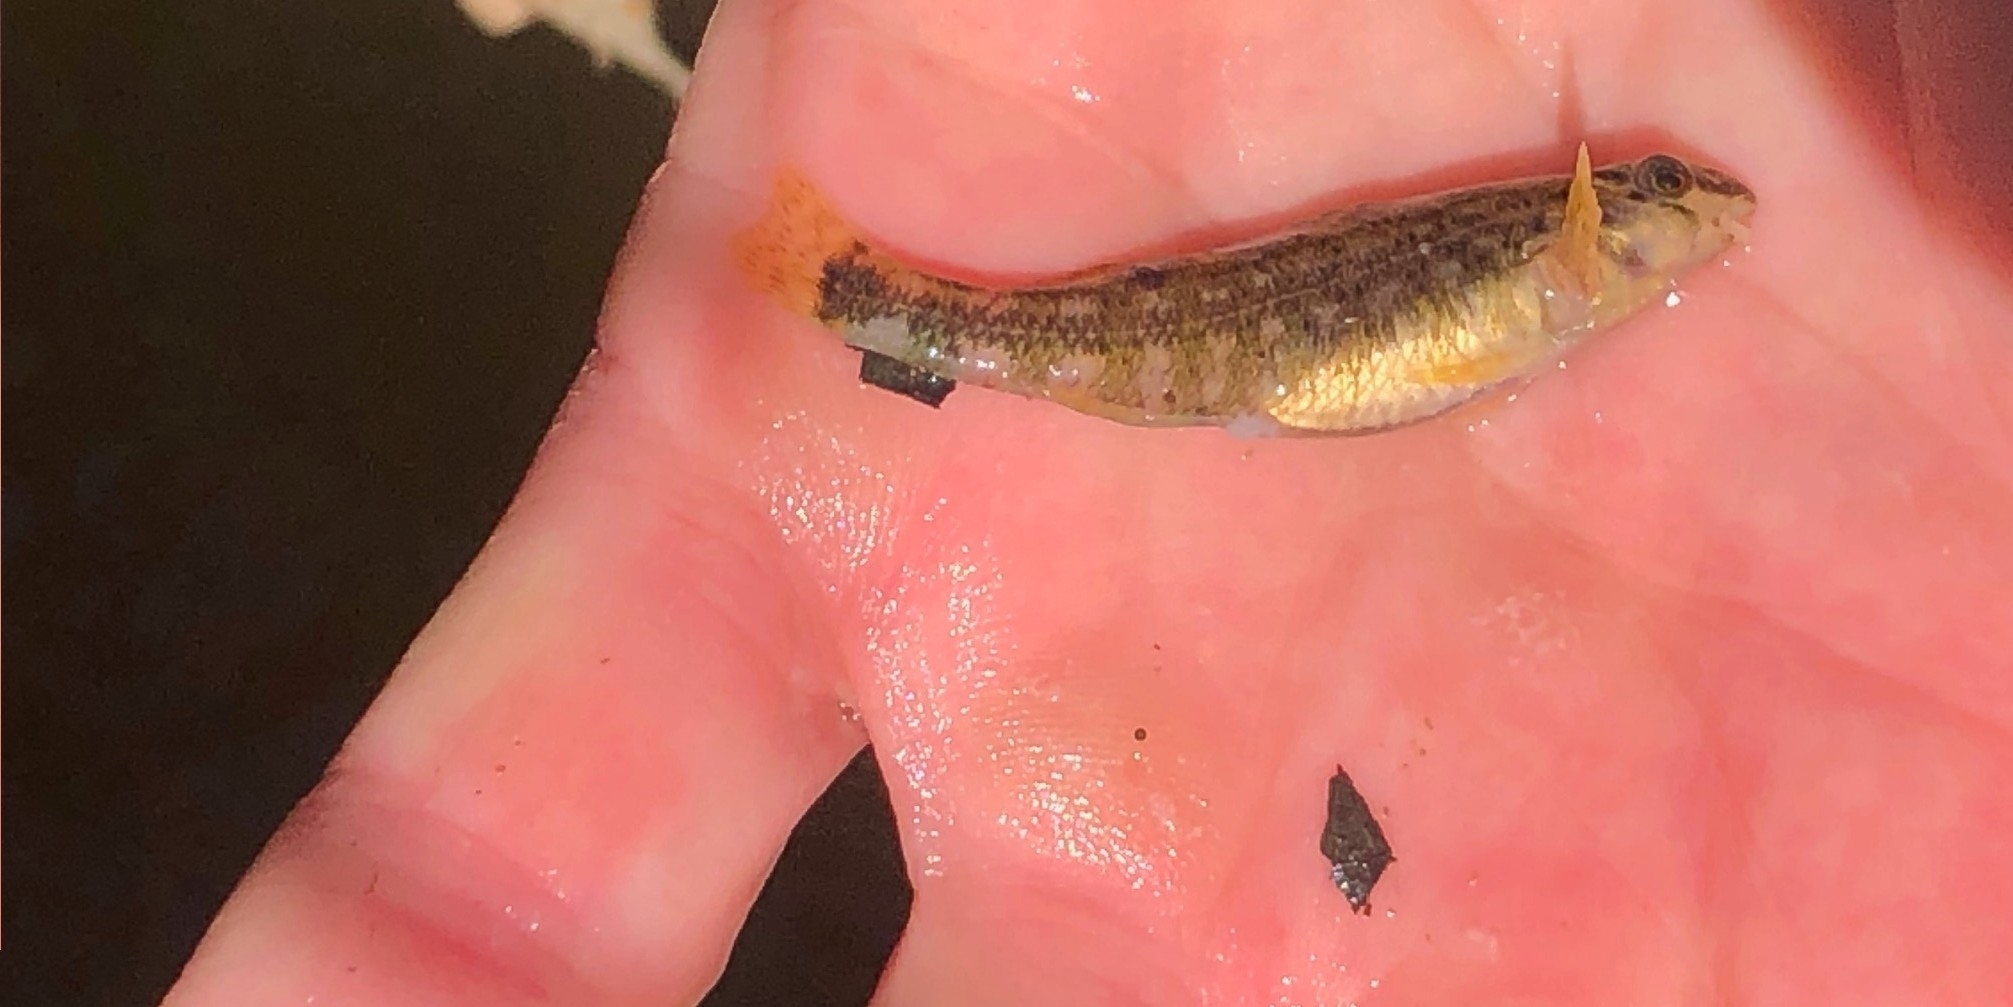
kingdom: Animalia
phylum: Chordata
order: Perciformes
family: Percidae
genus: Etheostoma
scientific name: Etheostoma lynceum
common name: Brighteye darter
